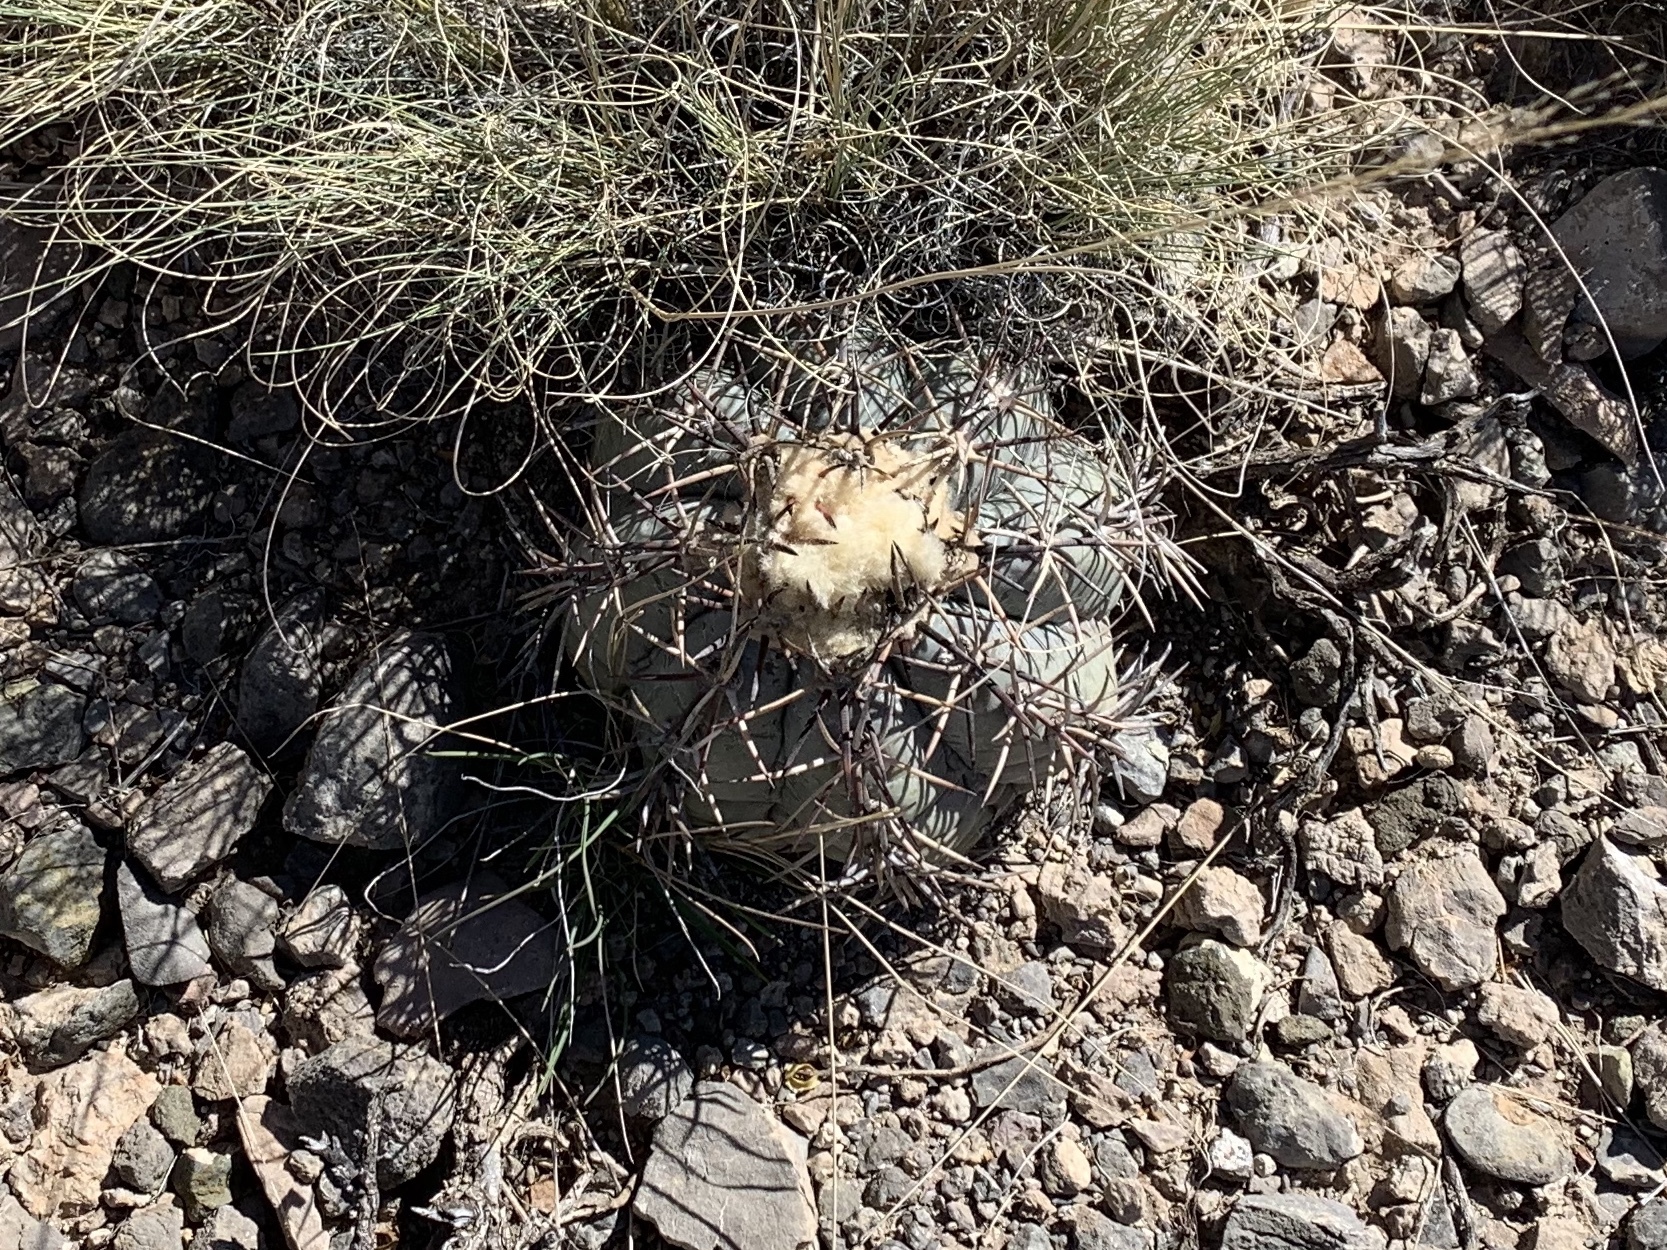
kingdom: Plantae
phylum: Tracheophyta
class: Magnoliopsida
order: Caryophyllales
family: Cactaceae
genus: Echinocactus
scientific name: Echinocactus horizonthalonius
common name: Devilshead
